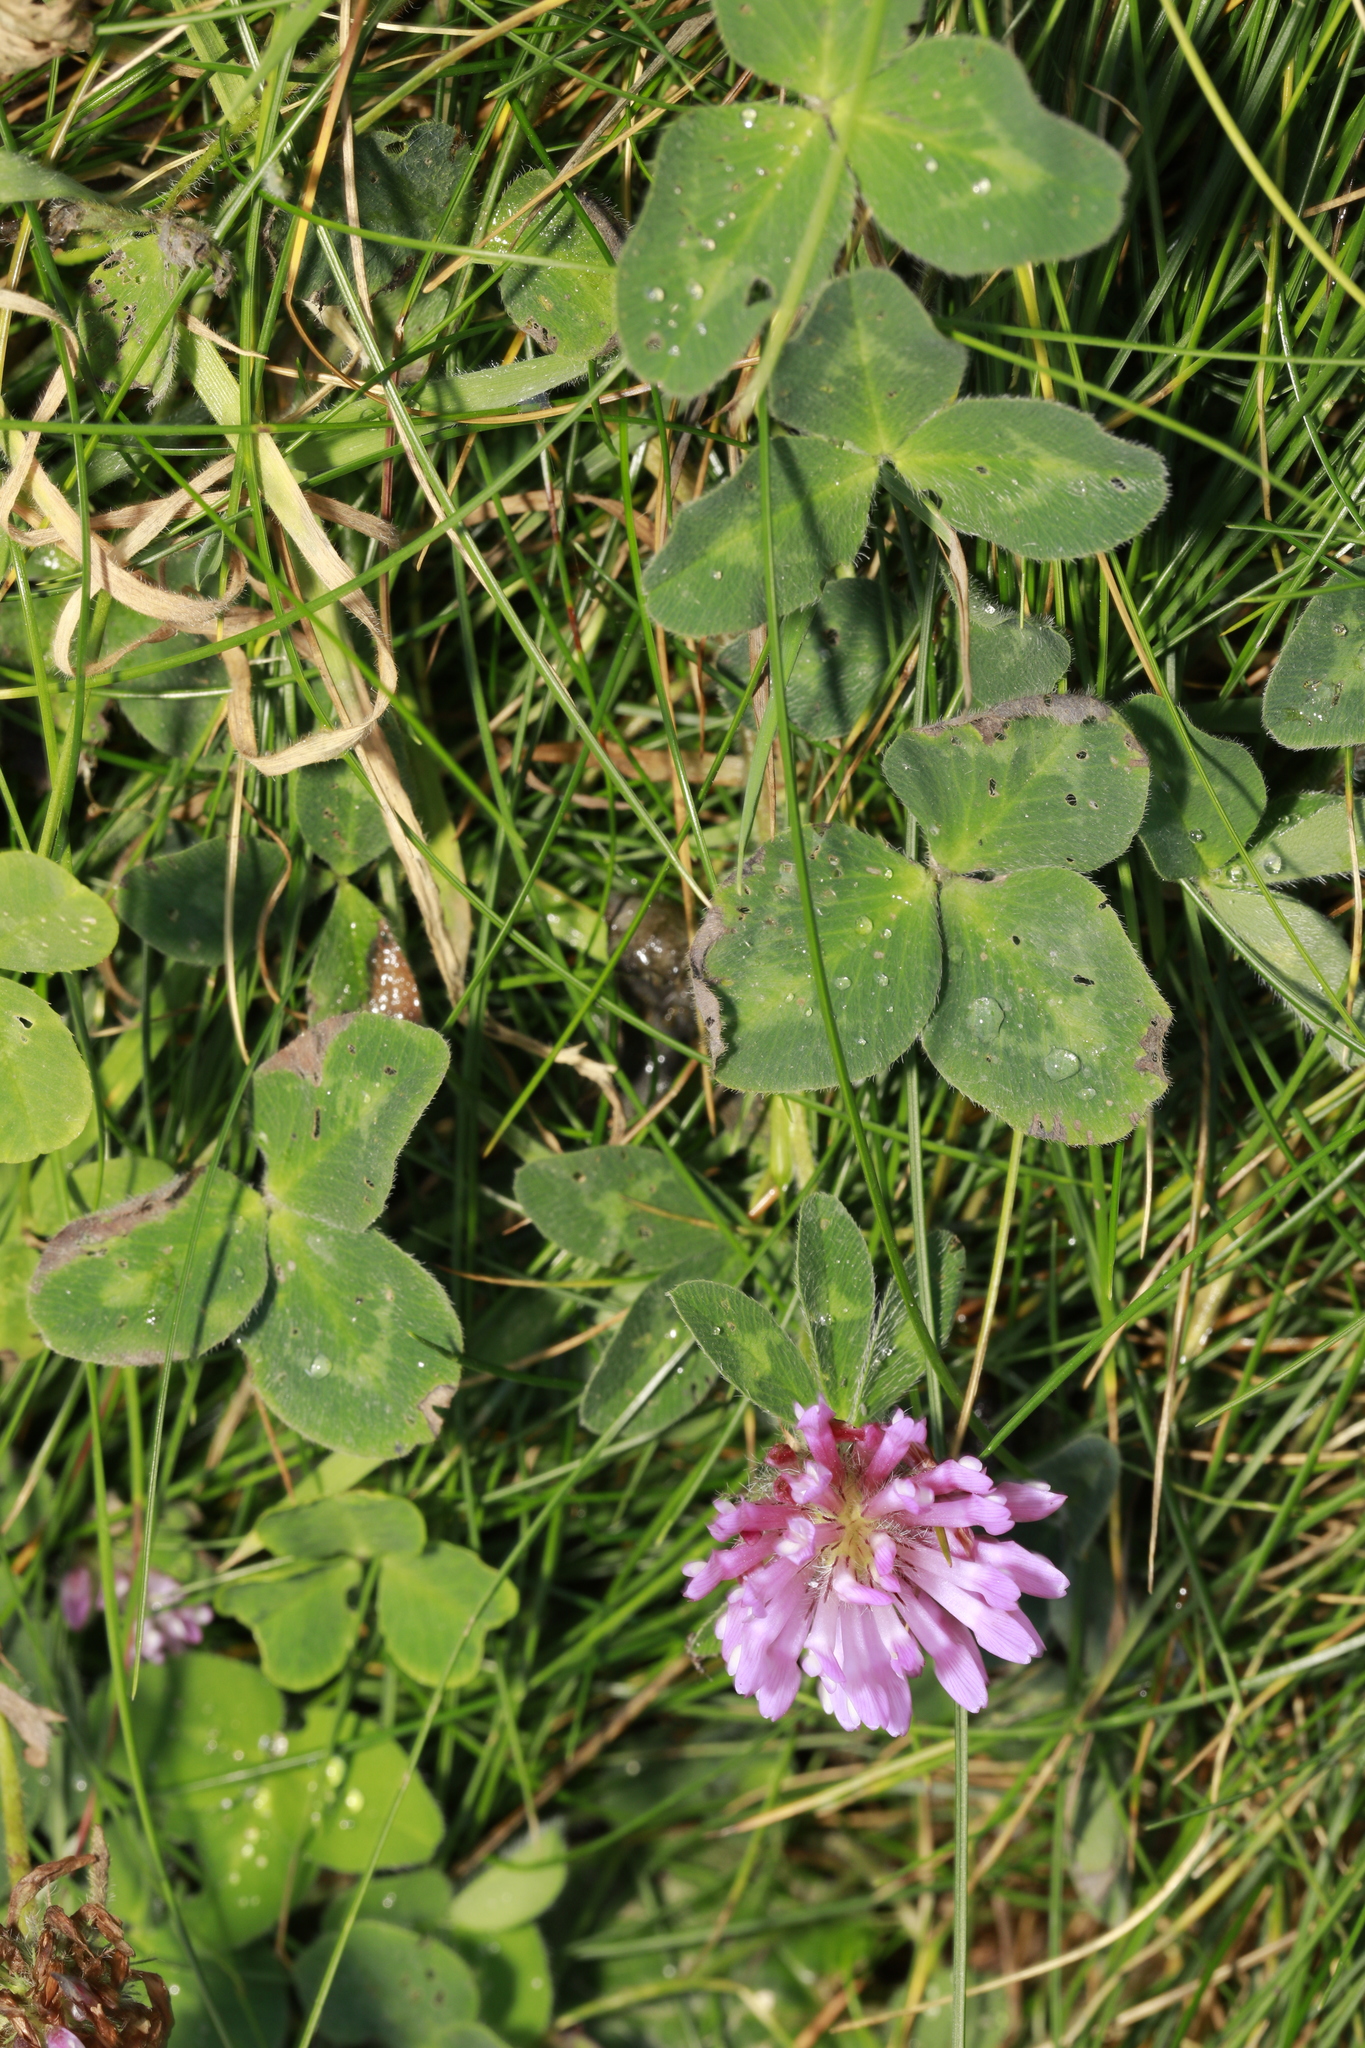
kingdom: Plantae
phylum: Tracheophyta
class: Magnoliopsida
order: Fabales
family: Fabaceae
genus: Trifolium
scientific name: Trifolium pratense
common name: Red clover
